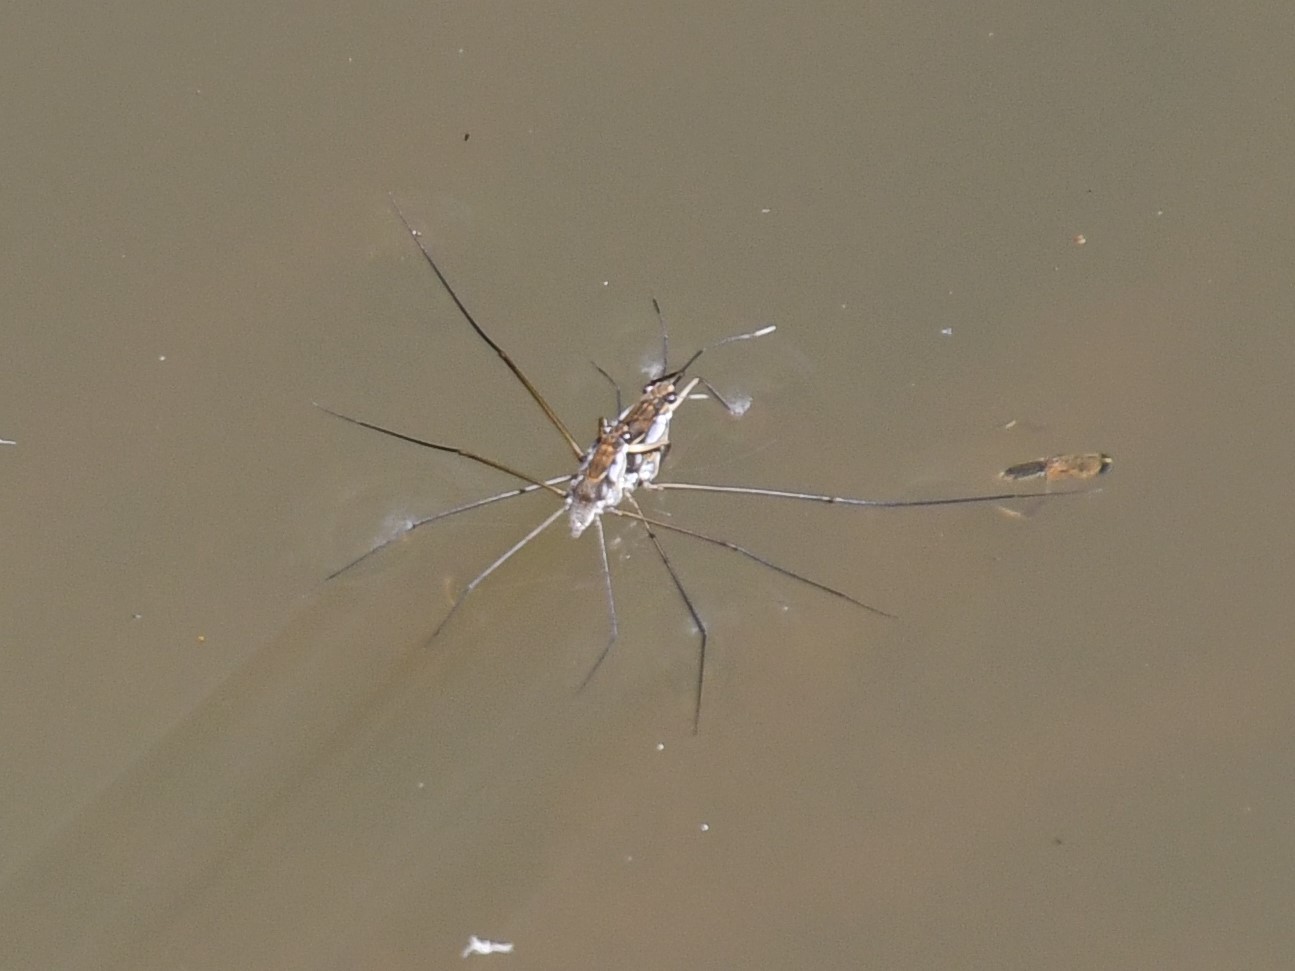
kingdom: Animalia
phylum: Arthropoda
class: Insecta
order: Hemiptera
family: Gerridae
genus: Tenagogerris
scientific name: Tenagogerris euphrosyne
